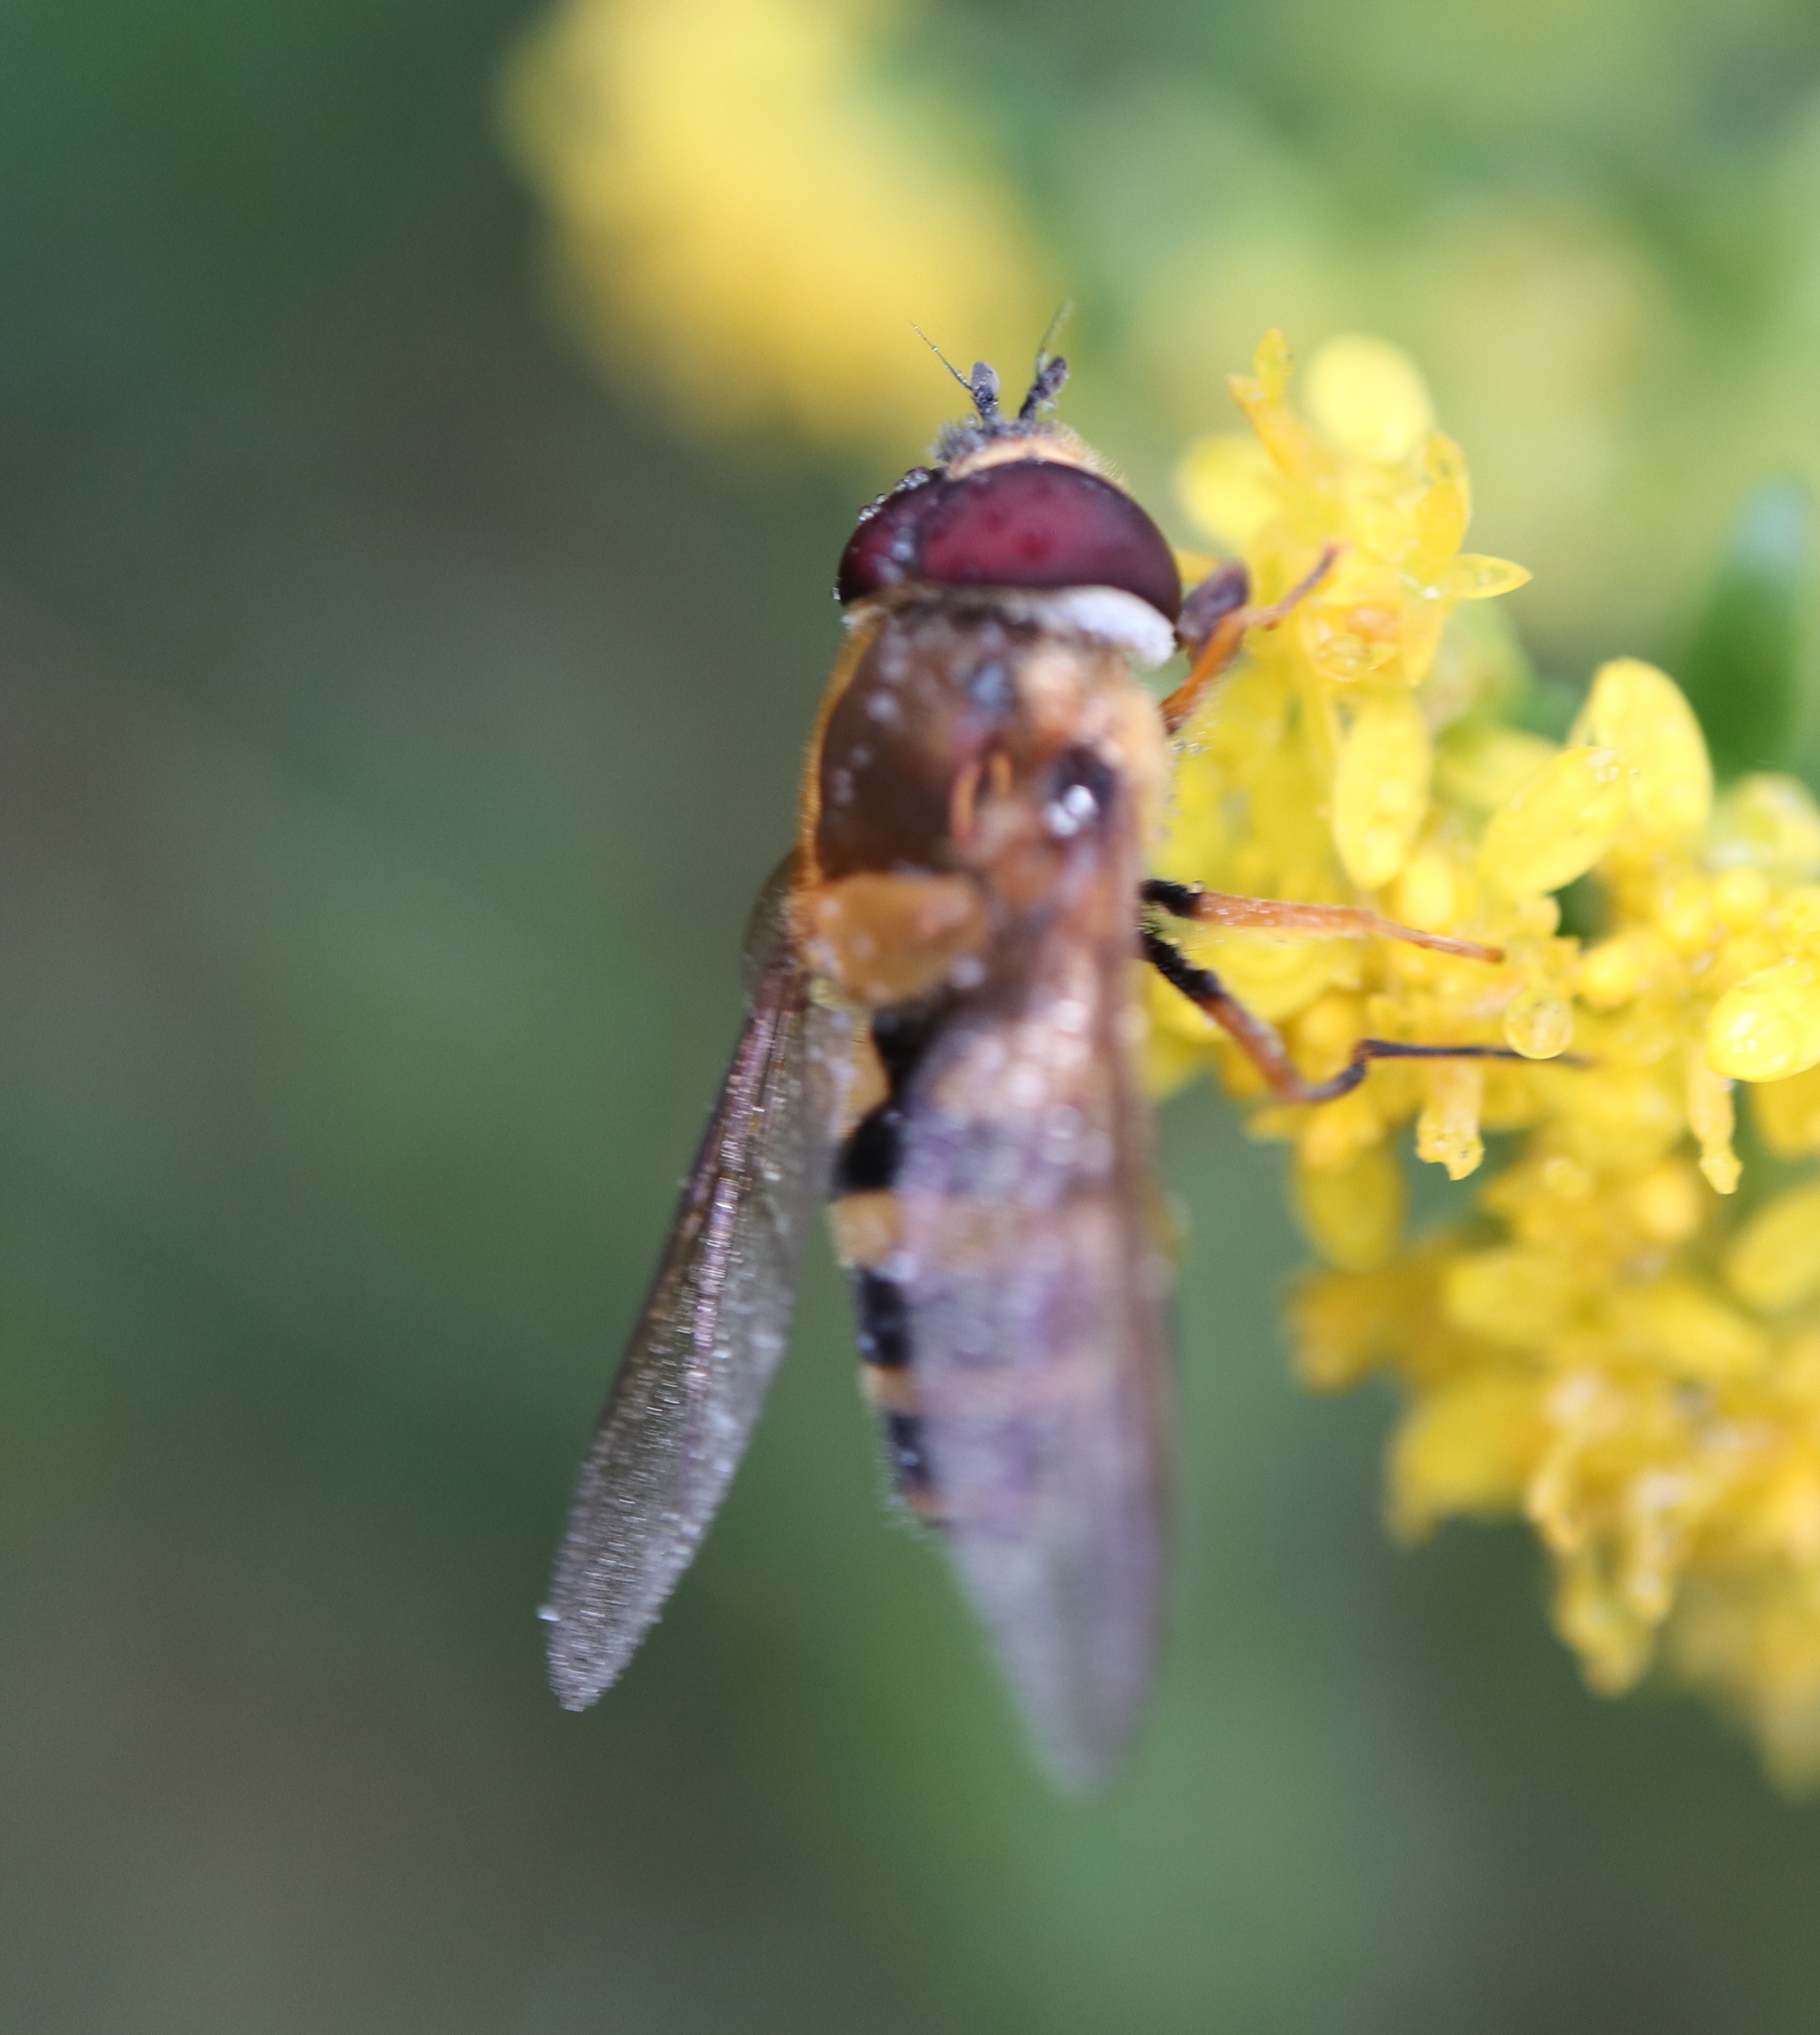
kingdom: Animalia
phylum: Arthropoda
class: Insecta
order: Diptera
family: Syrphidae
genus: Epistrophe
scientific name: Epistrophe grossulariae
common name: Black-horned smoothtail
